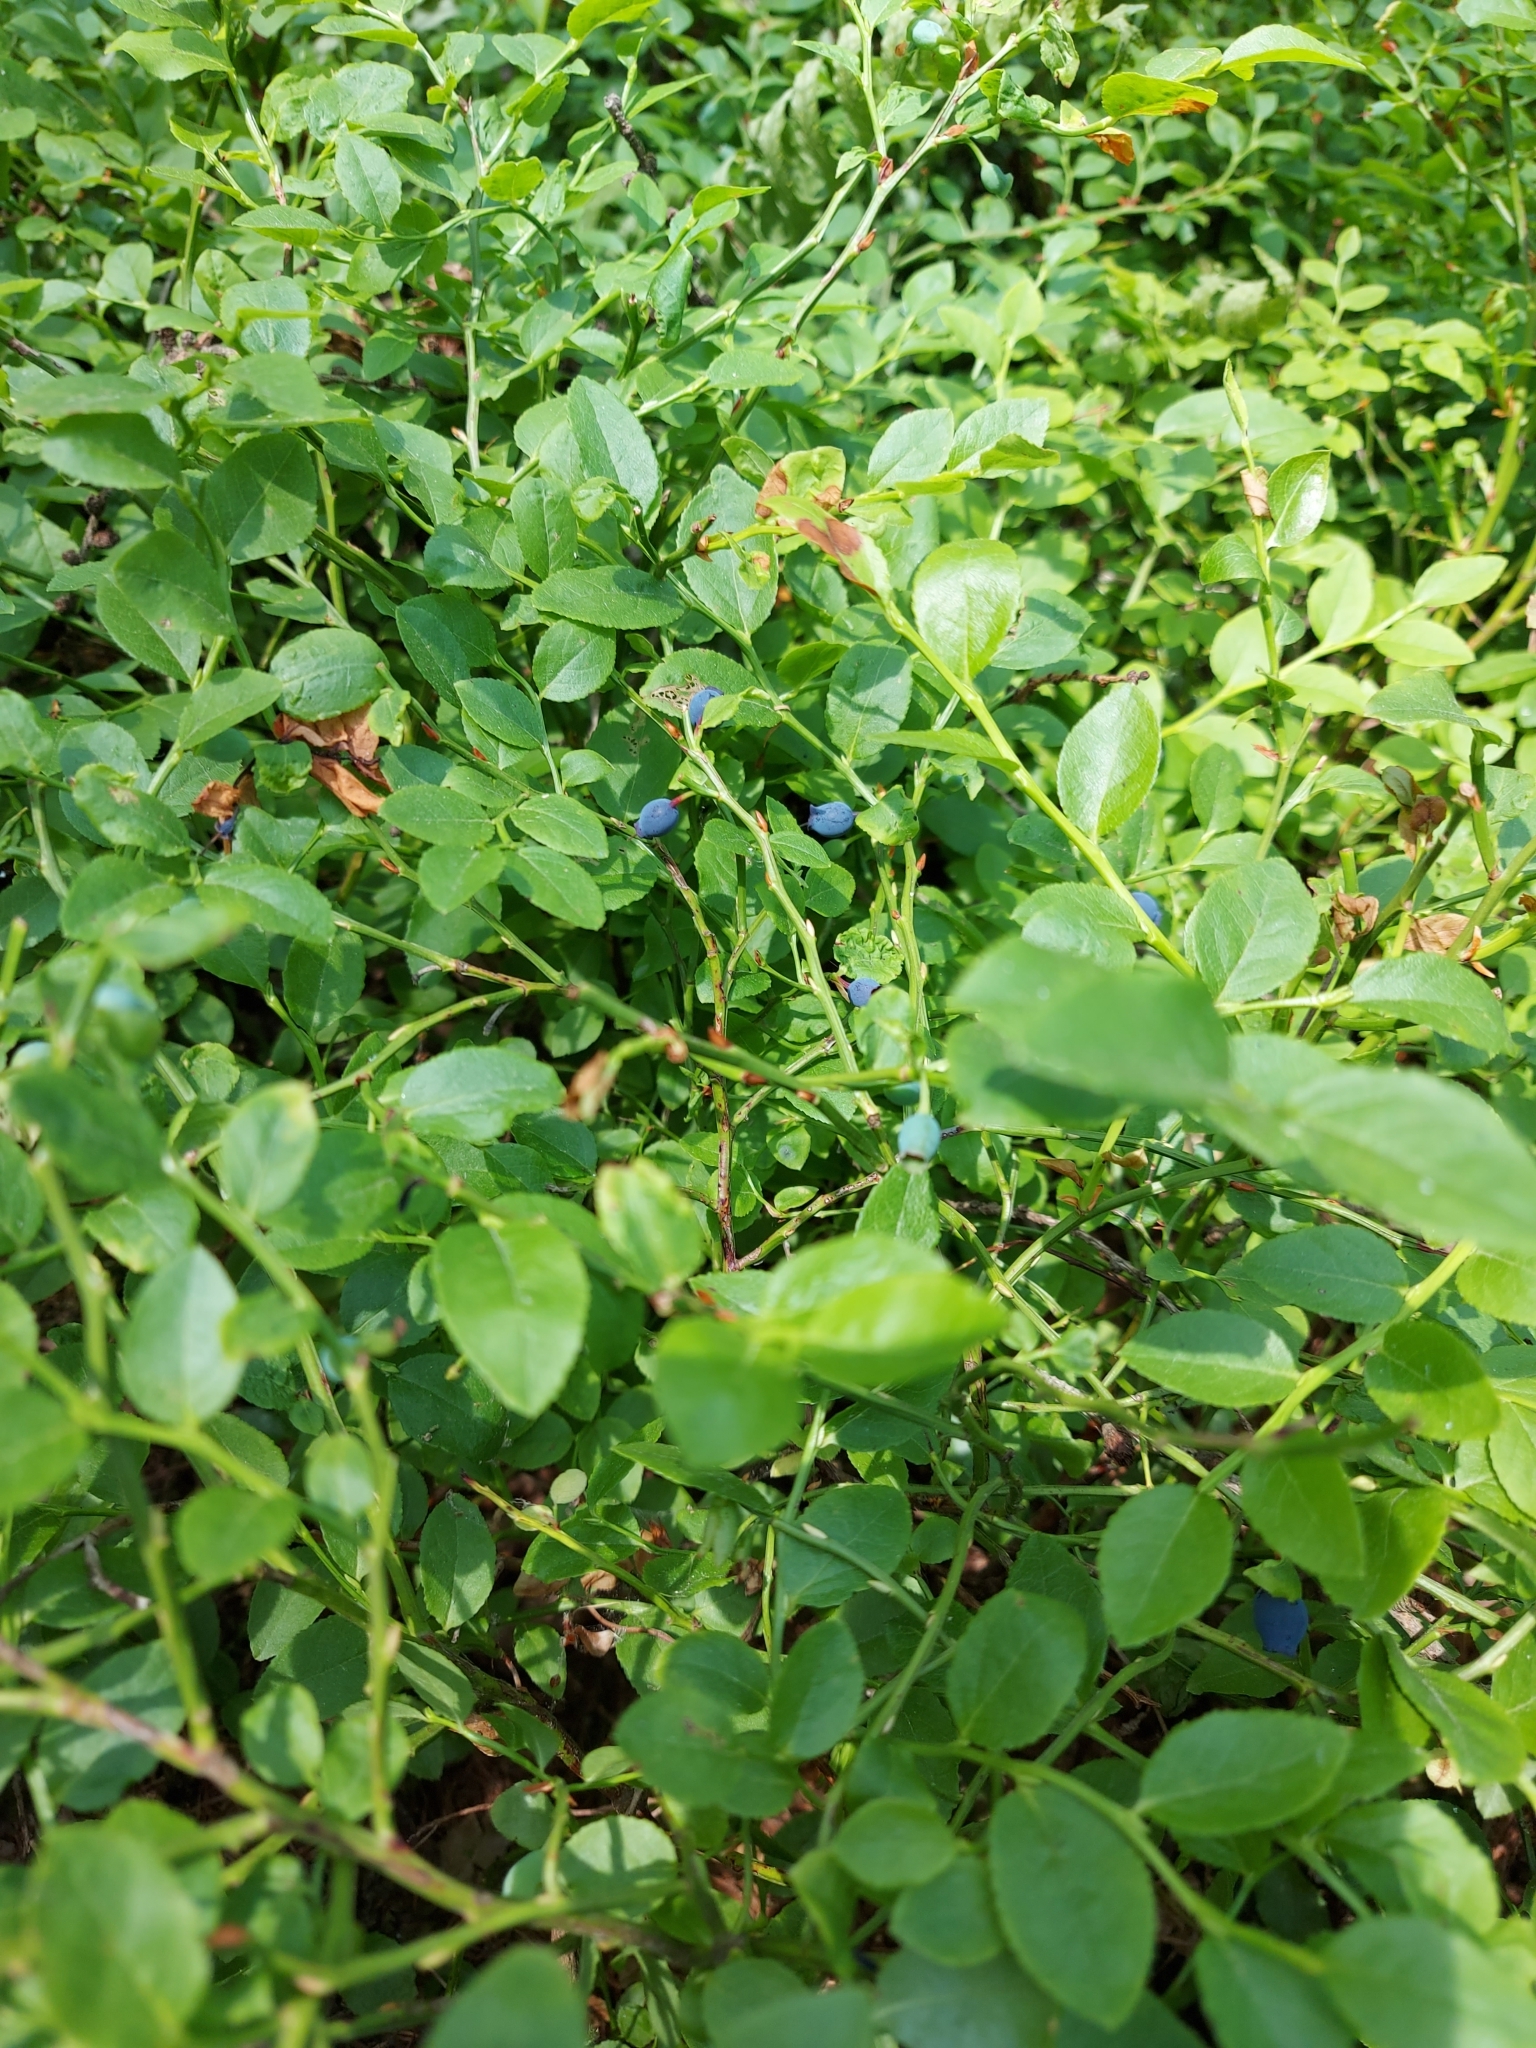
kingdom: Plantae
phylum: Tracheophyta
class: Magnoliopsida
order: Ericales
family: Ericaceae
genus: Vaccinium
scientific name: Vaccinium myrtillus
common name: Bilberry
